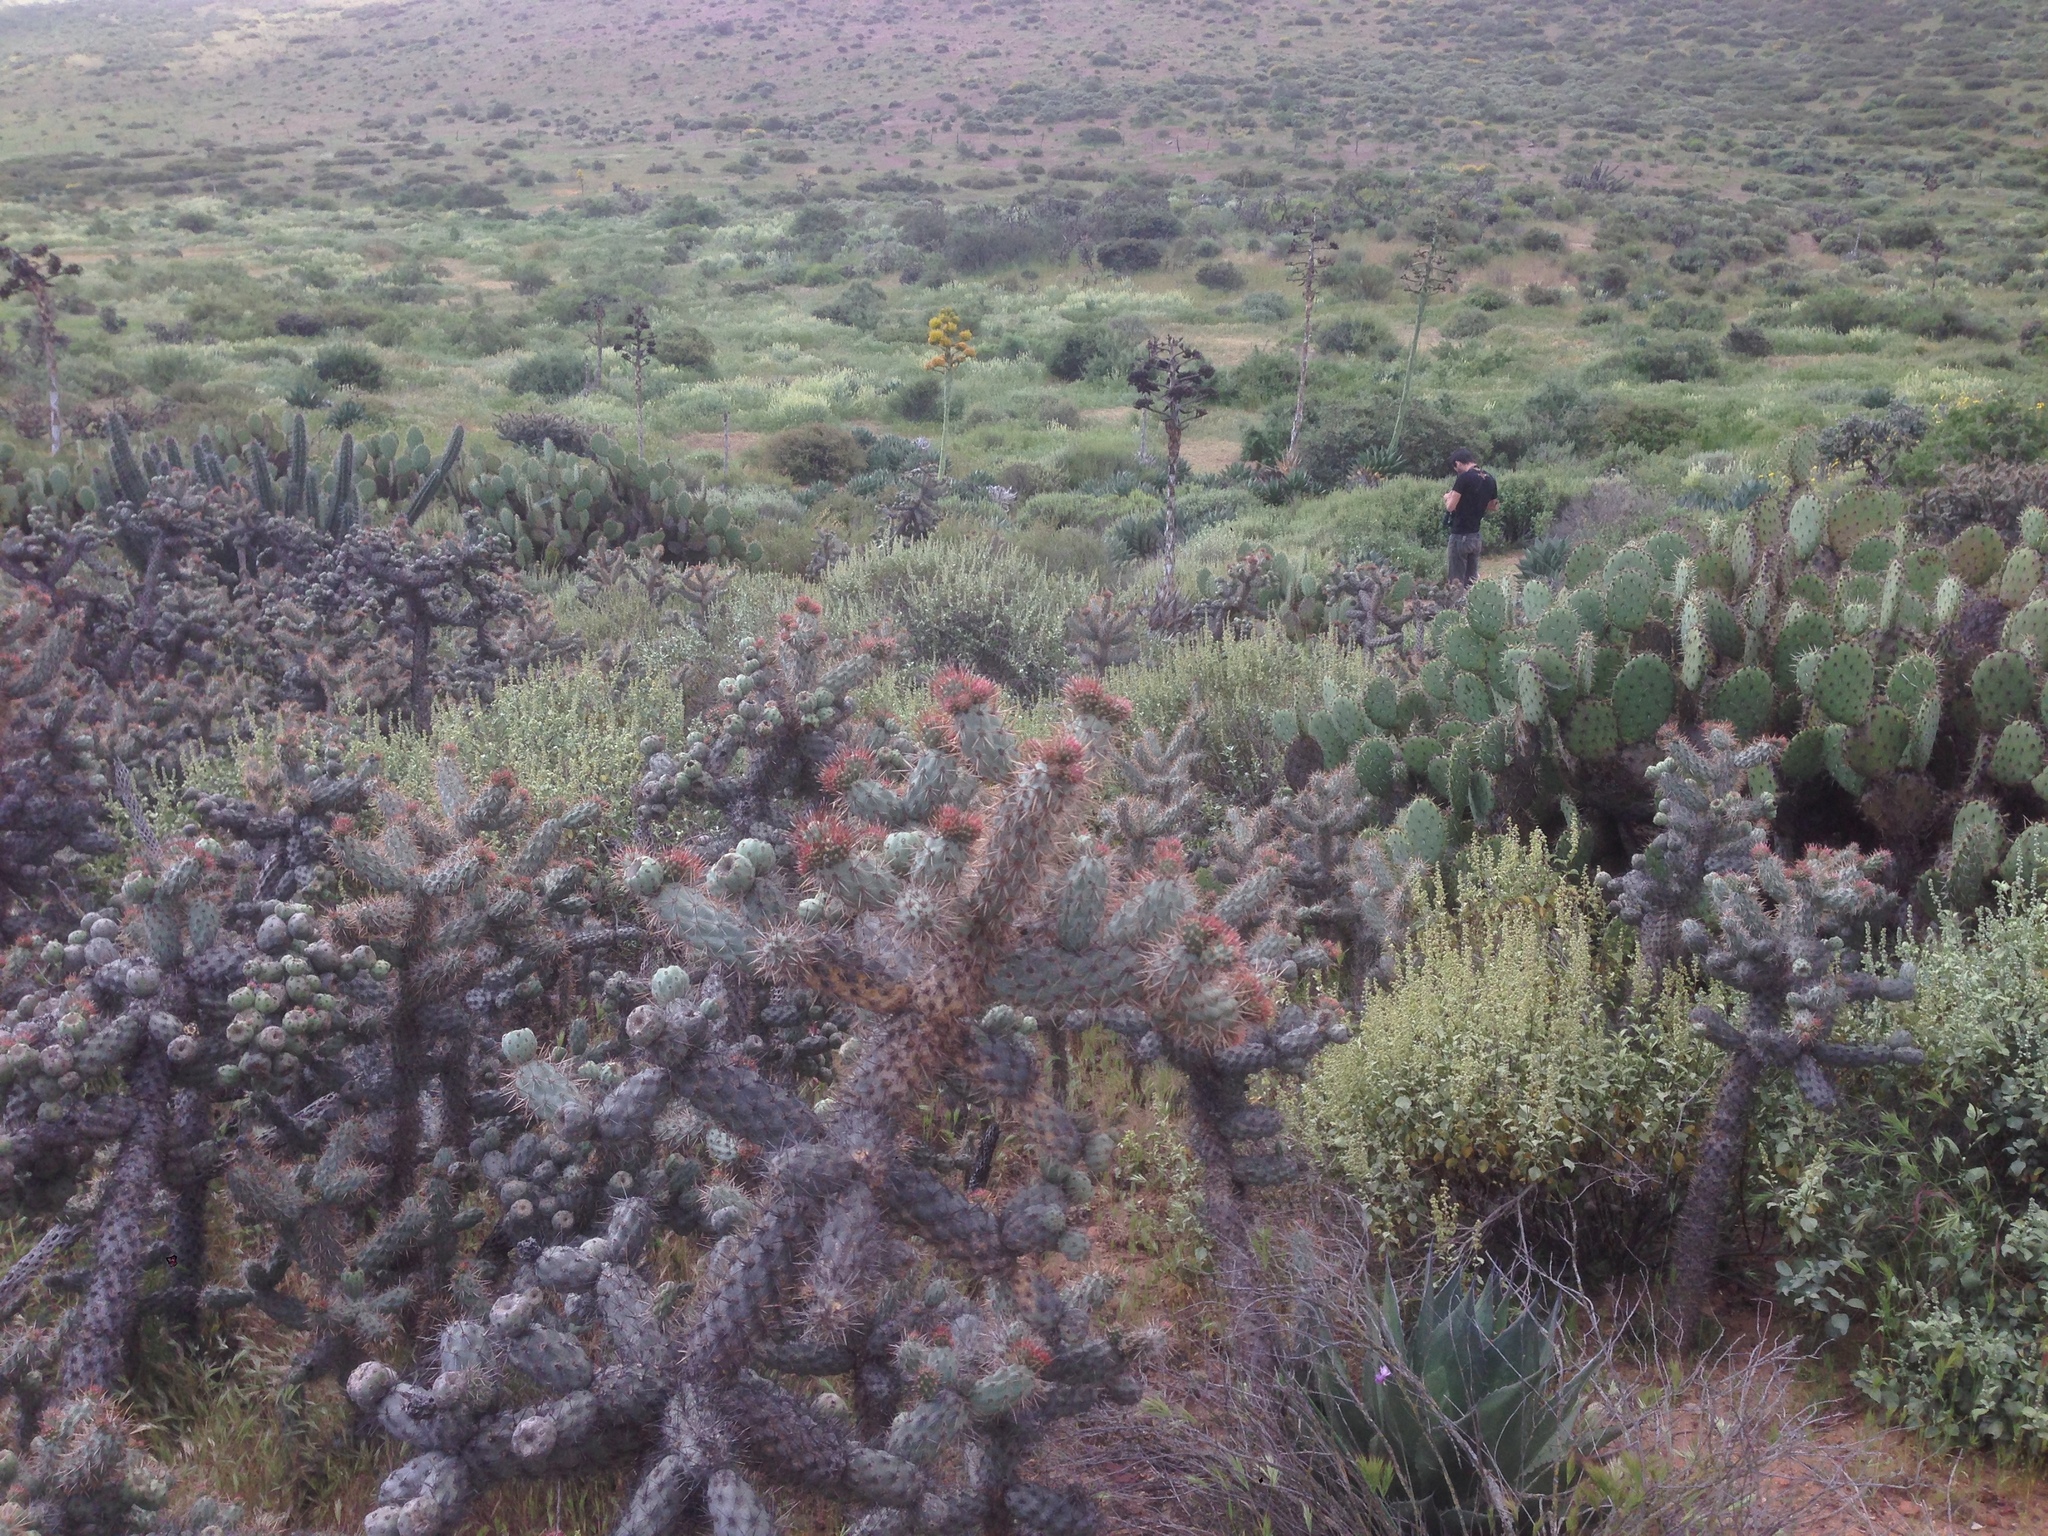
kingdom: Plantae
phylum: Tracheophyta
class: Magnoliopsida
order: Caryophyllales
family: Cactaceae
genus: Cylindropuntia
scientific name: Cylindropuntia prolifera
